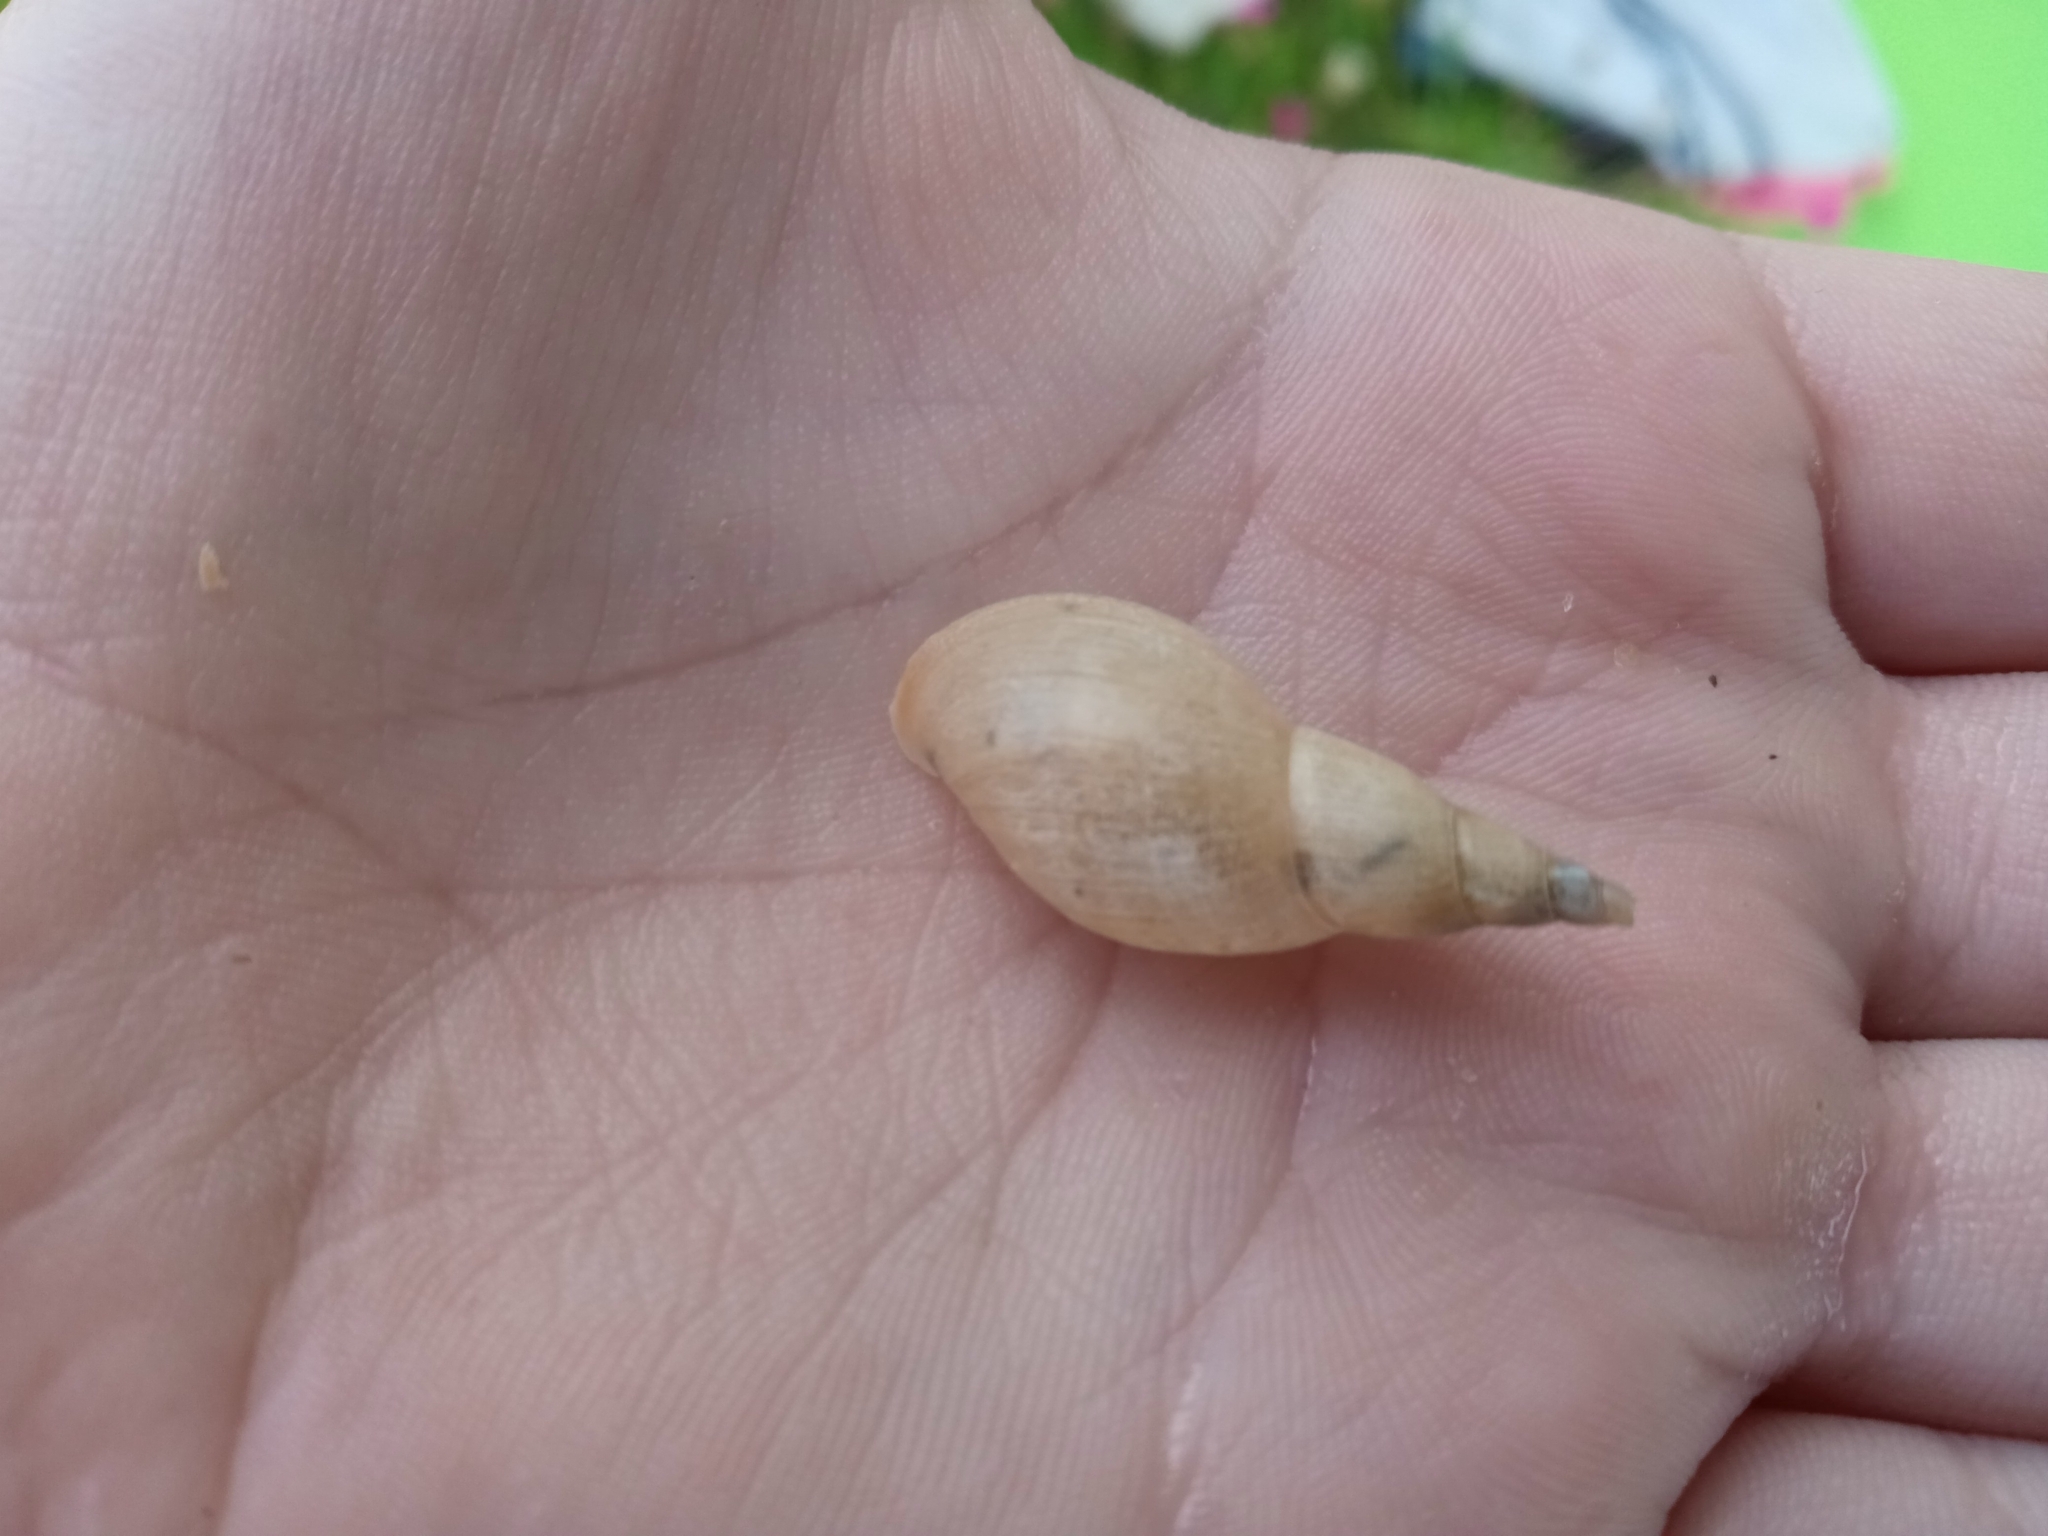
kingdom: Animalia
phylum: Mollusca
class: Gastropoda
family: Lymnaeidae
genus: Lymnaea
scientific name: Lymnaea stagnalis
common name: Great pond snail
